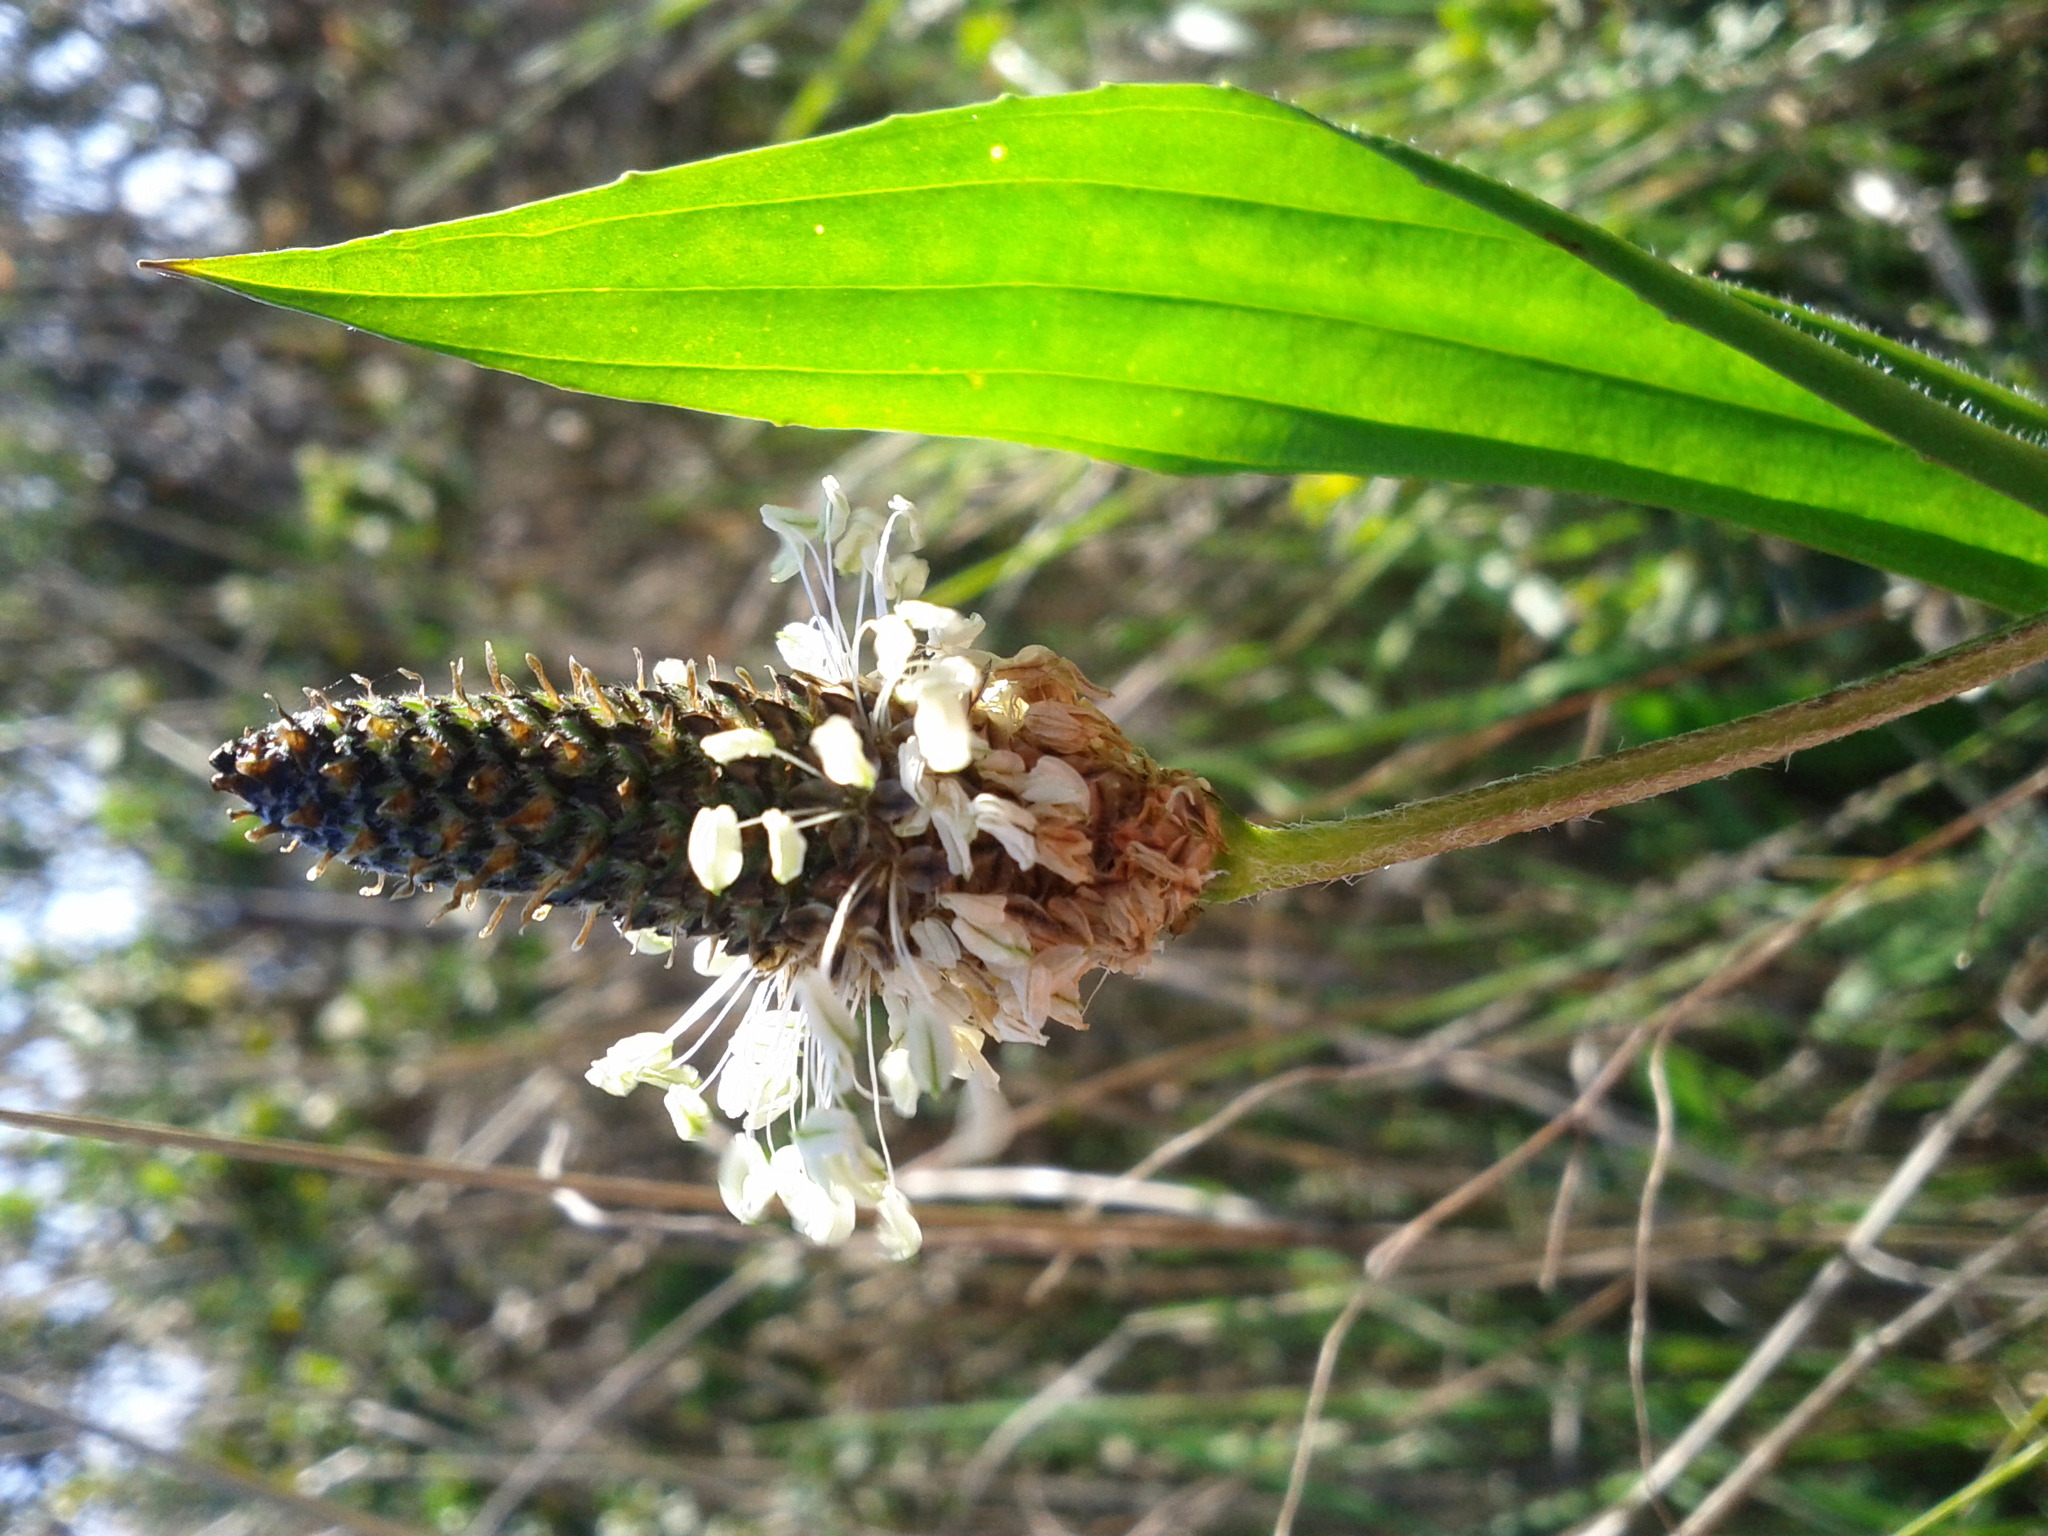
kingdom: Plantae
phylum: Tracheophyta
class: Magnoliopsida
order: Lamiales
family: Plantaginaceae
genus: Plantago
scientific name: Plantago lanceolata
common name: Ribwort plantain
